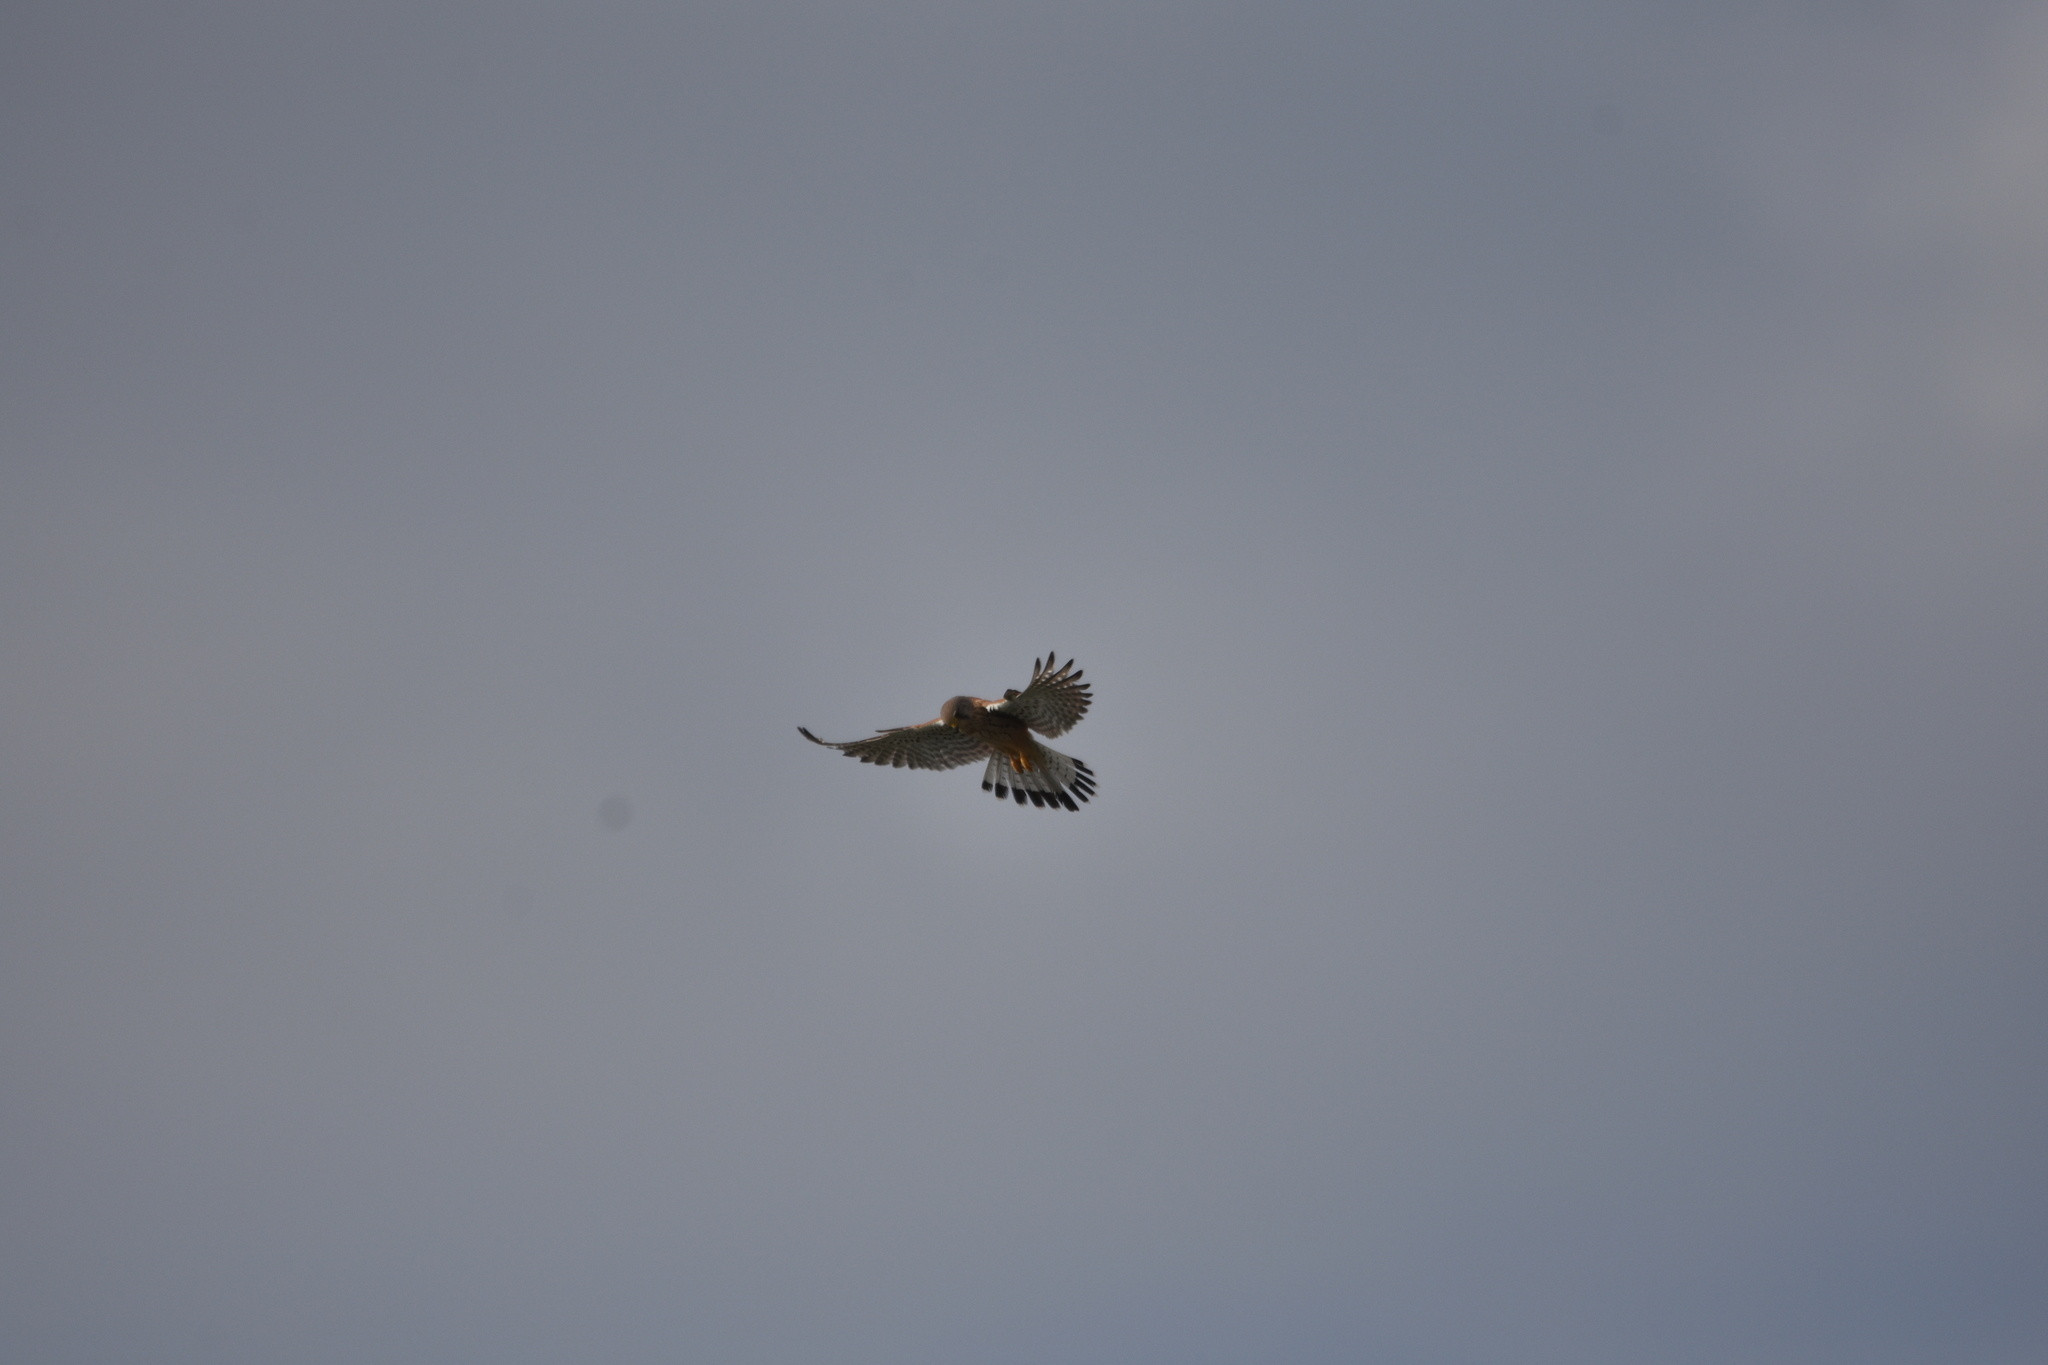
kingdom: Animalia
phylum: Chordata
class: Aves
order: Falconiformes
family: Falconidae
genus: Falco
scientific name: Falco tinnunculus
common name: Common kestrel
